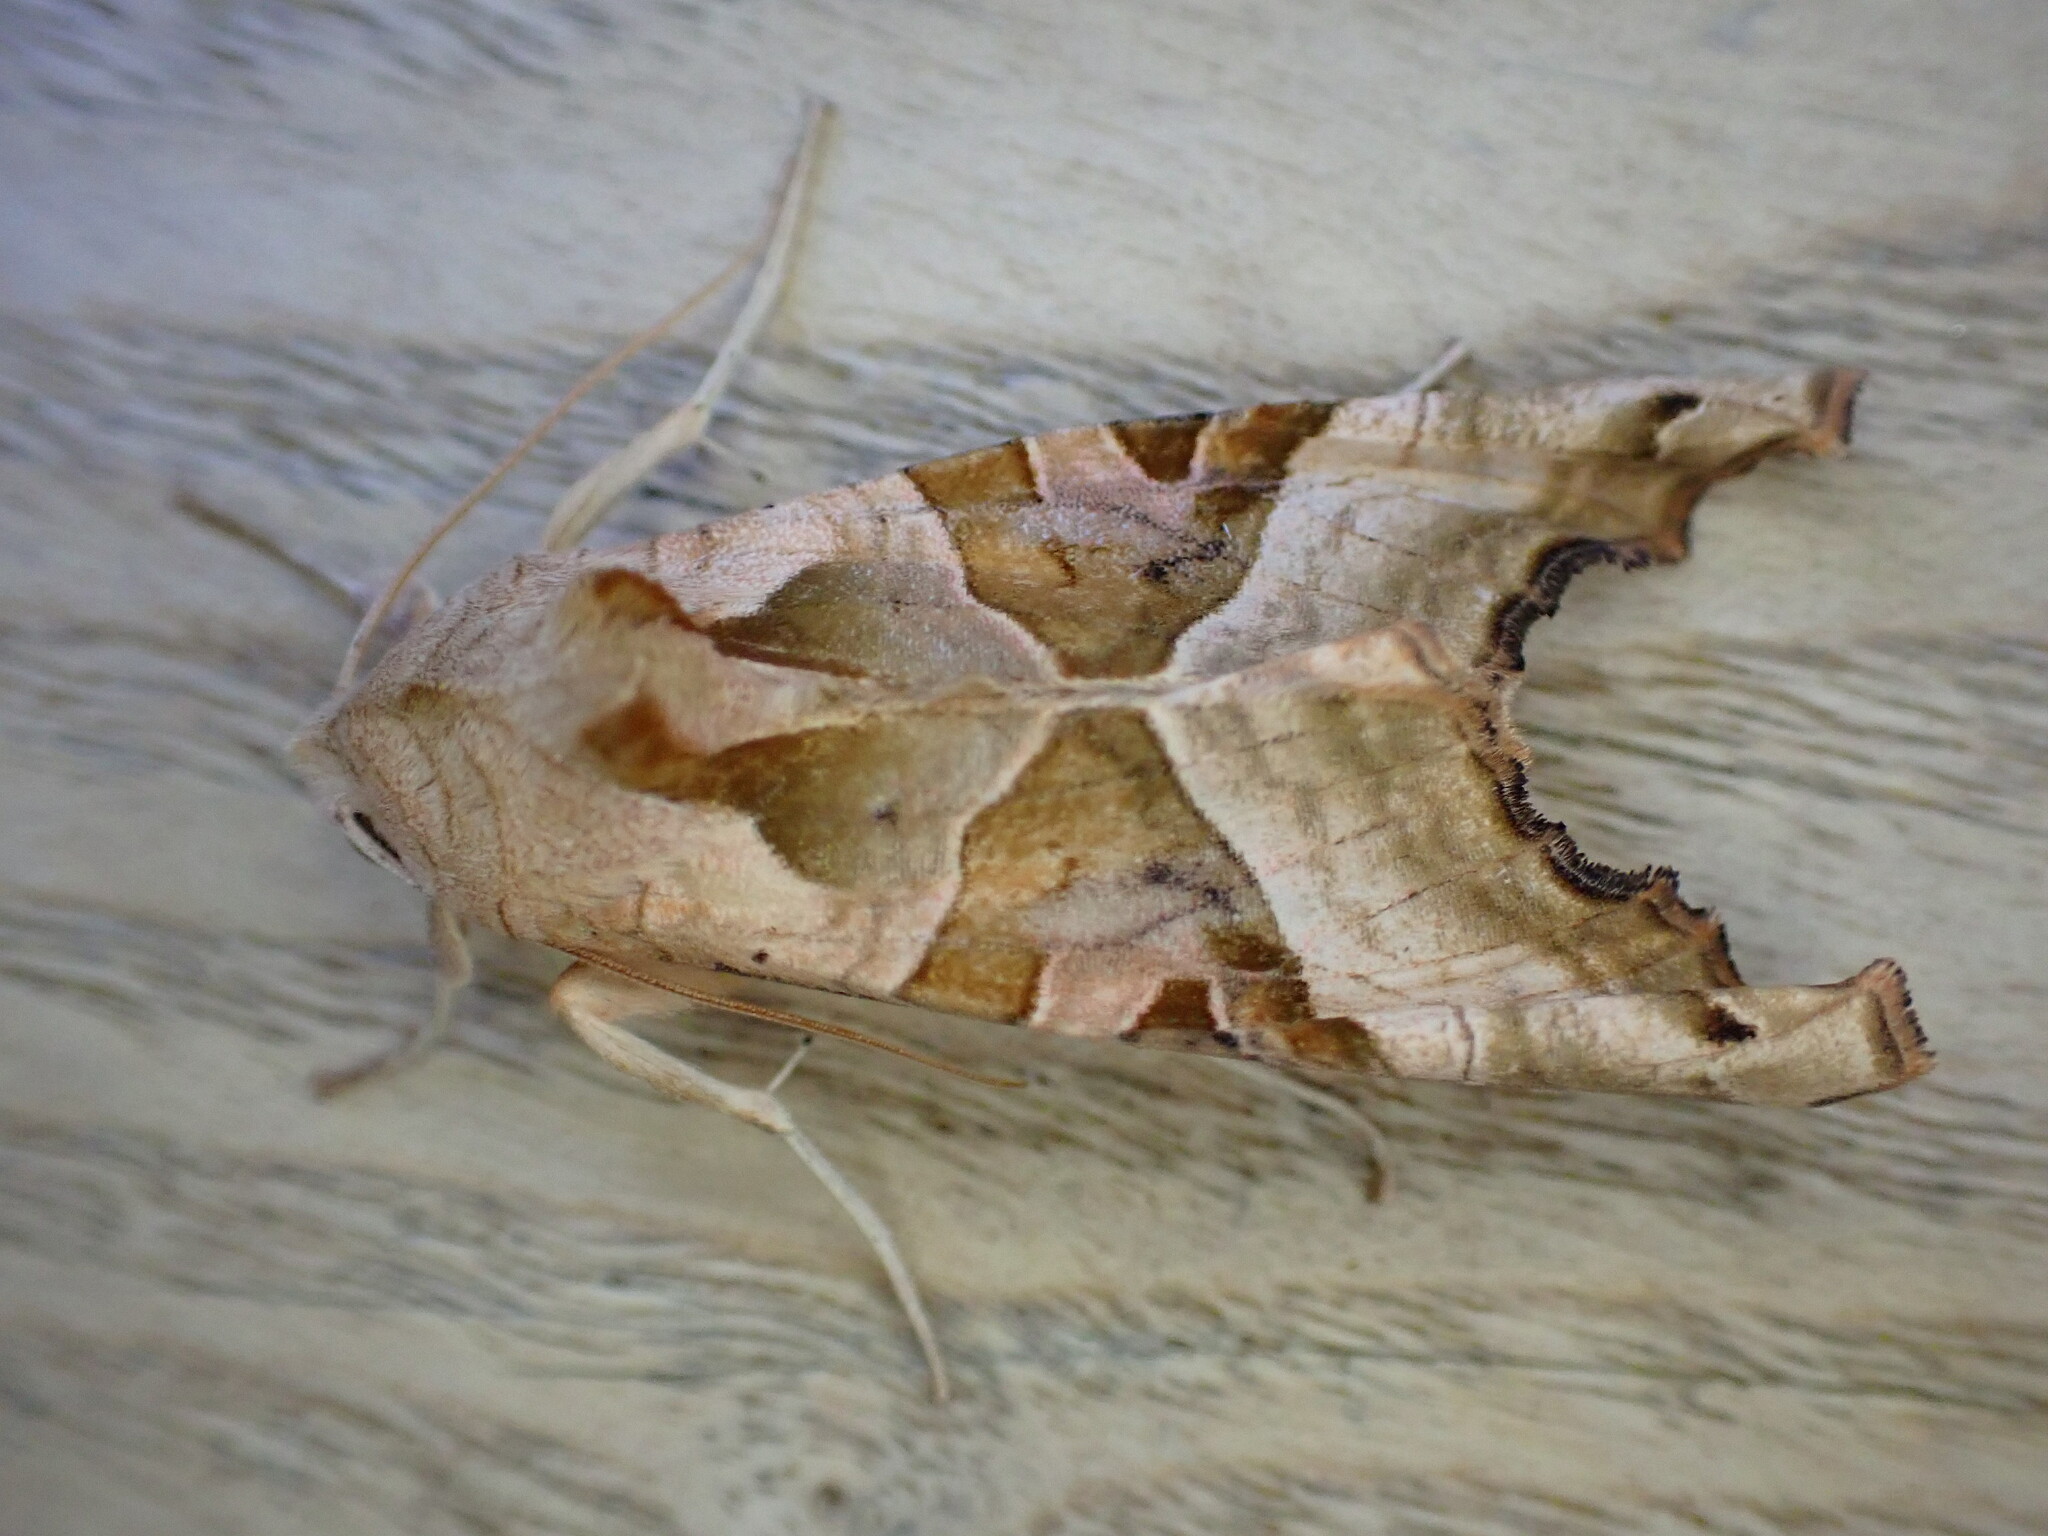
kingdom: Animalia
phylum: Arthropoda
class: Insecta
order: Lepidoptera
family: Noctuidae
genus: Phlogophora
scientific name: Phlogophora meticulosa
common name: Angle shades
